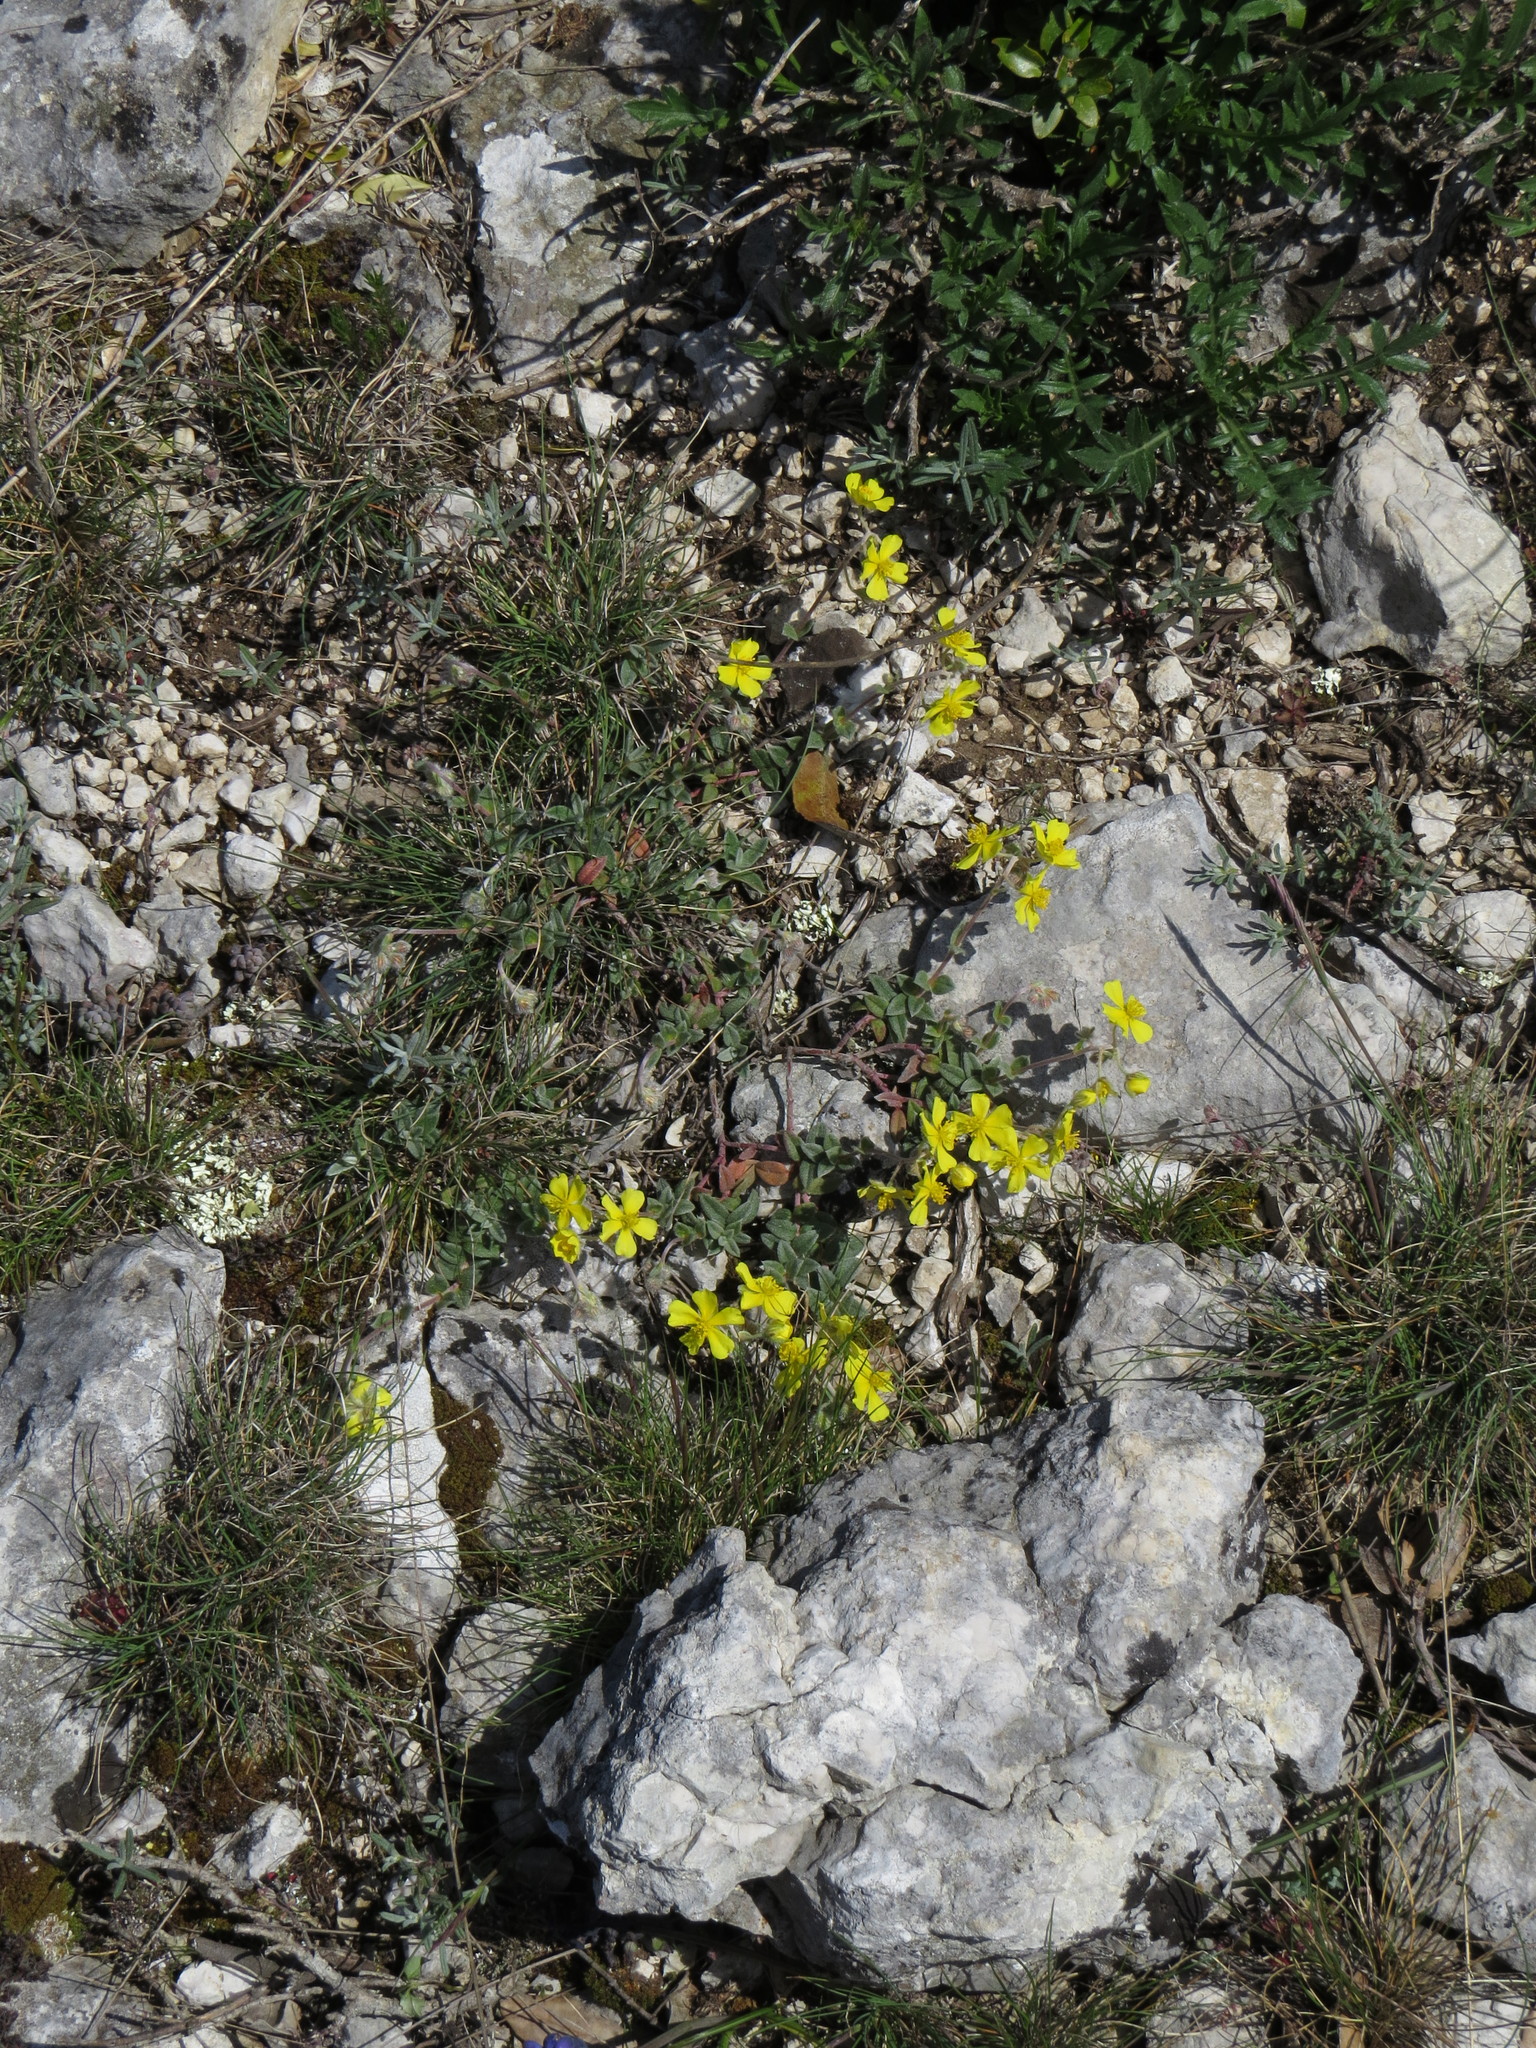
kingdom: Plantae
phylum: Tracheophyta
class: Magnoliopsida
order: Malvales
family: Cistaceae
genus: Helianthemum
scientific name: Helianthemum canum
